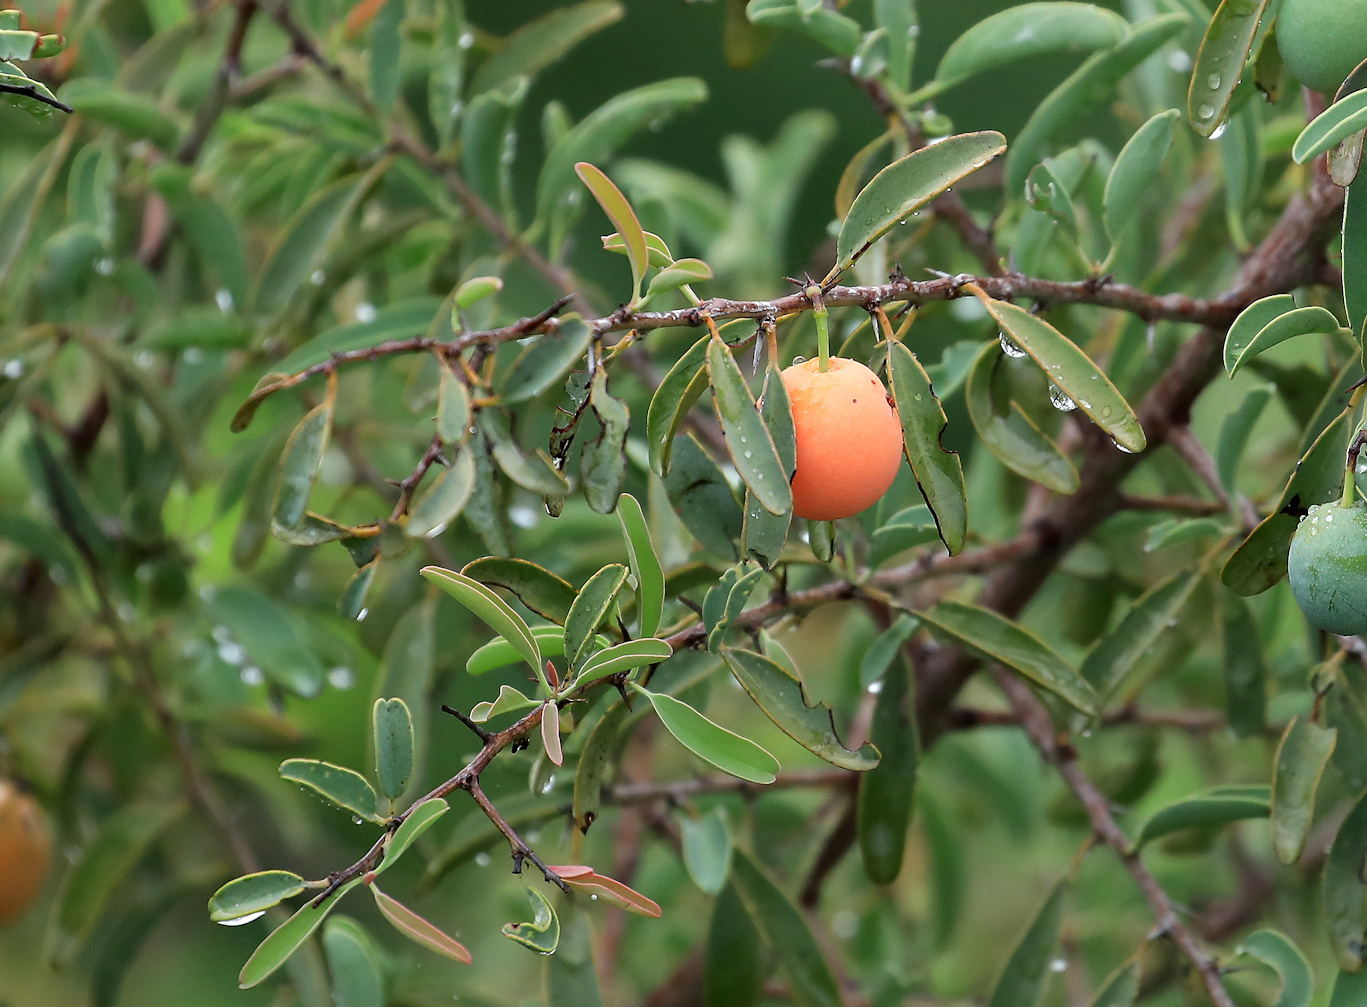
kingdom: Plantae
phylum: Tracheophyta
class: Magnoliopsida
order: Santalales
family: Ximeniaceae
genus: Ximenia
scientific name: Ximenia americana
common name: Tallowwood
